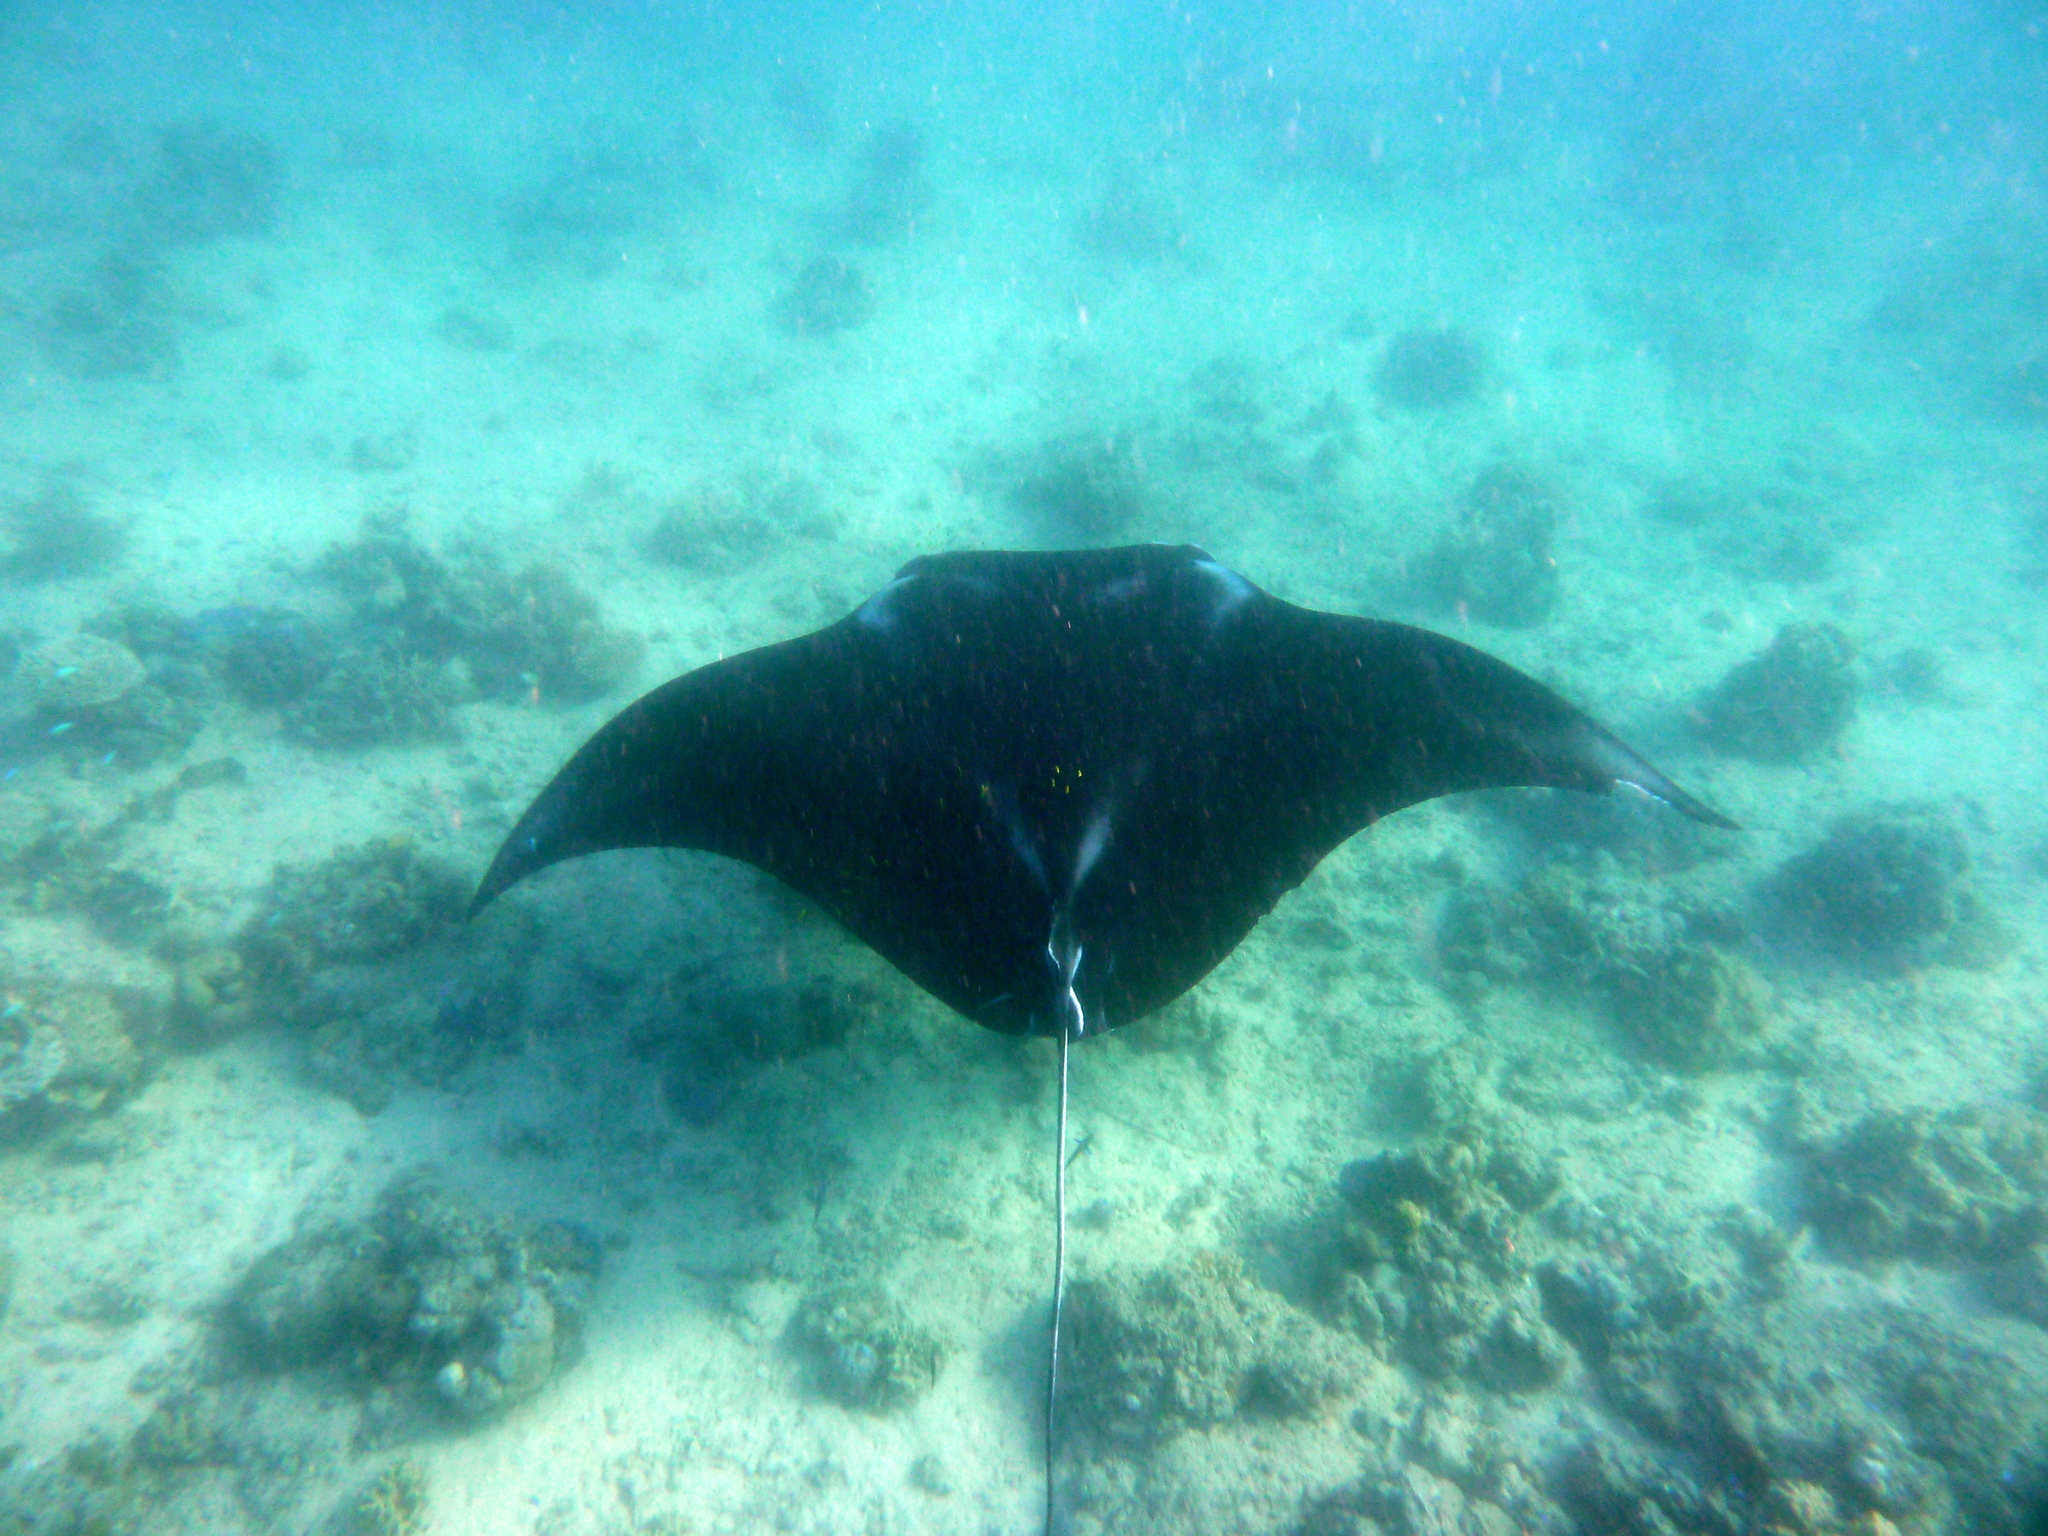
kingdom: Animalia
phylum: Chordata
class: Elasmobranchii
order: Myliobatiformes
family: Myliobatidae
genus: Mobula
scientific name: Mobula alfredi
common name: Reef manta ray
